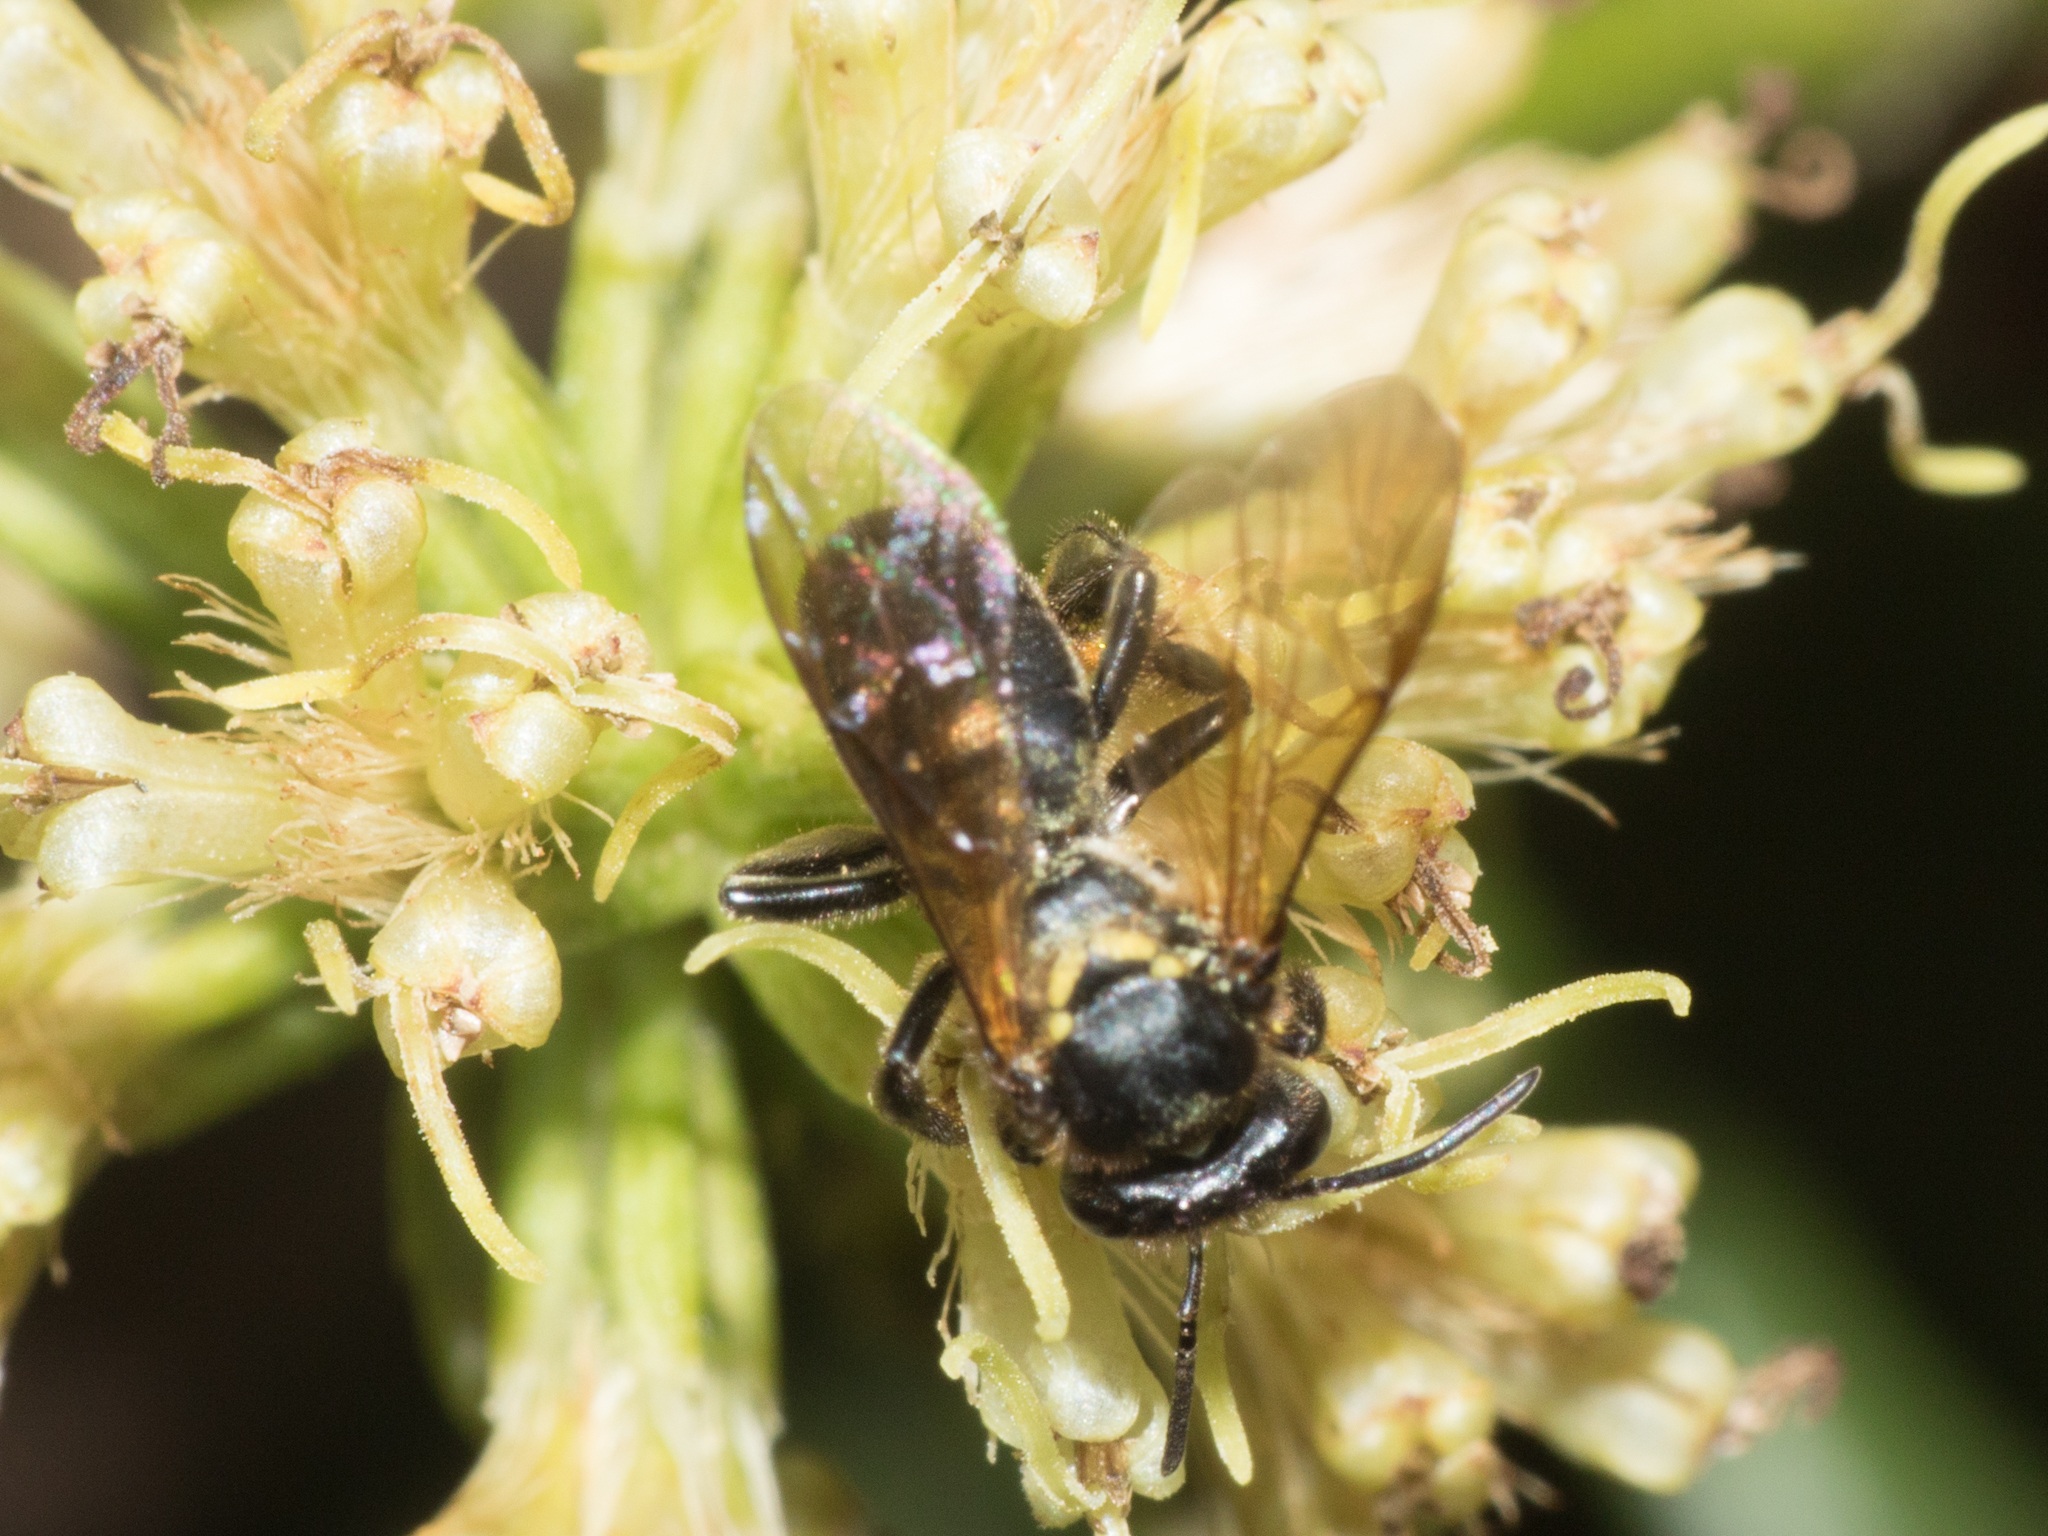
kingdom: Animalia
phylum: Arthropoda
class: Insecta
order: Hymenoptera
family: Apidae
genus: Schwarziana
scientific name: Schwarziana quadripunctata
